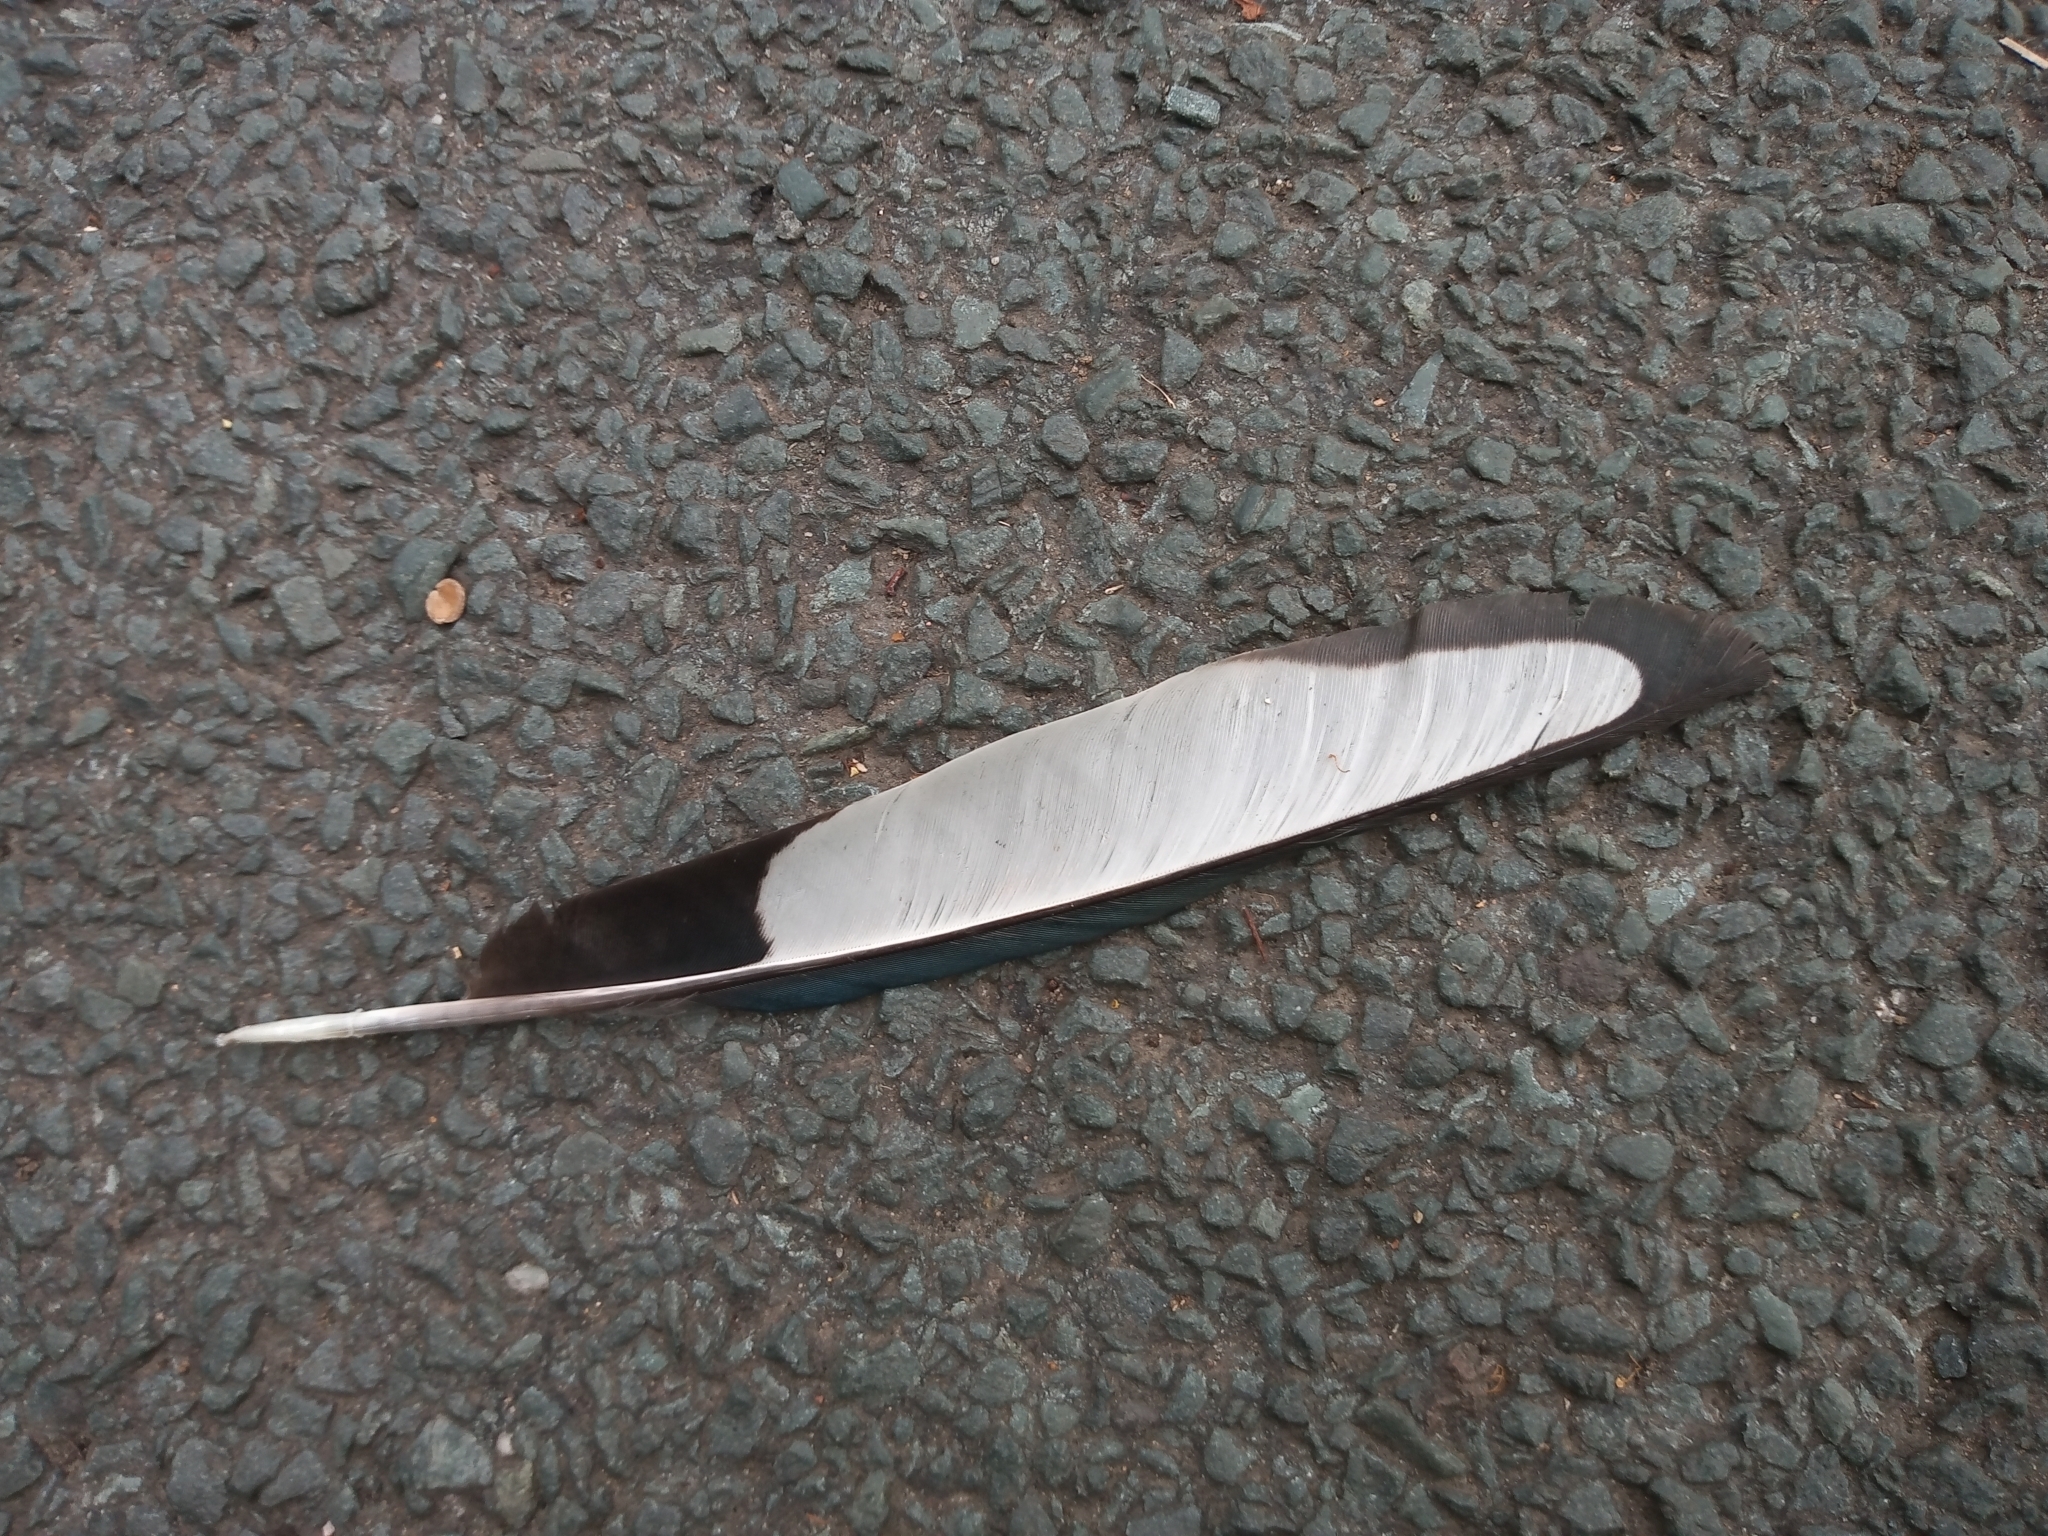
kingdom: Animalia
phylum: Chordata
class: Aves
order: Passeriformes
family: Corvidae
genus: Pica
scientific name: Pica pica
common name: Eurasian magpie
